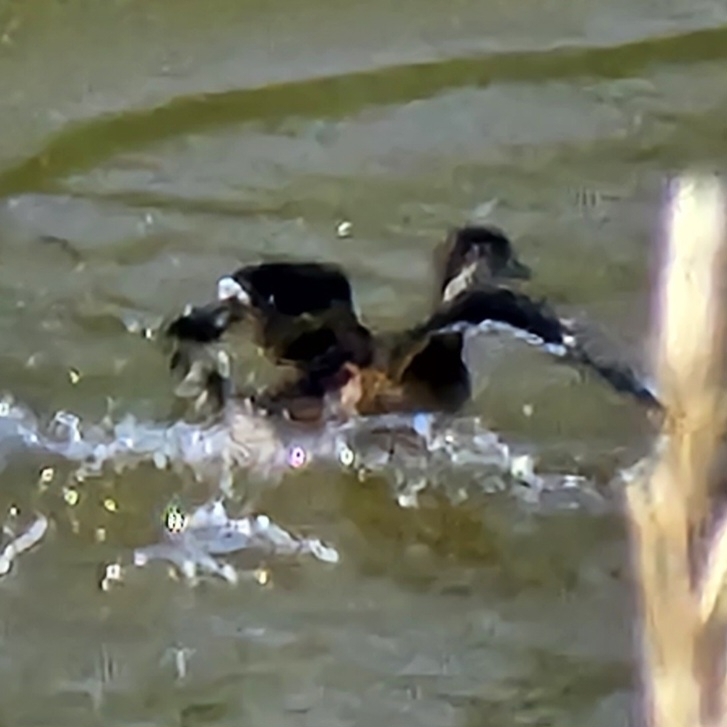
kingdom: Animalia
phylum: Chordata
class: Aves
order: Anseriformes
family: Anatidae
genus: Aix
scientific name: Aix sponsa
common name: Wood duck
